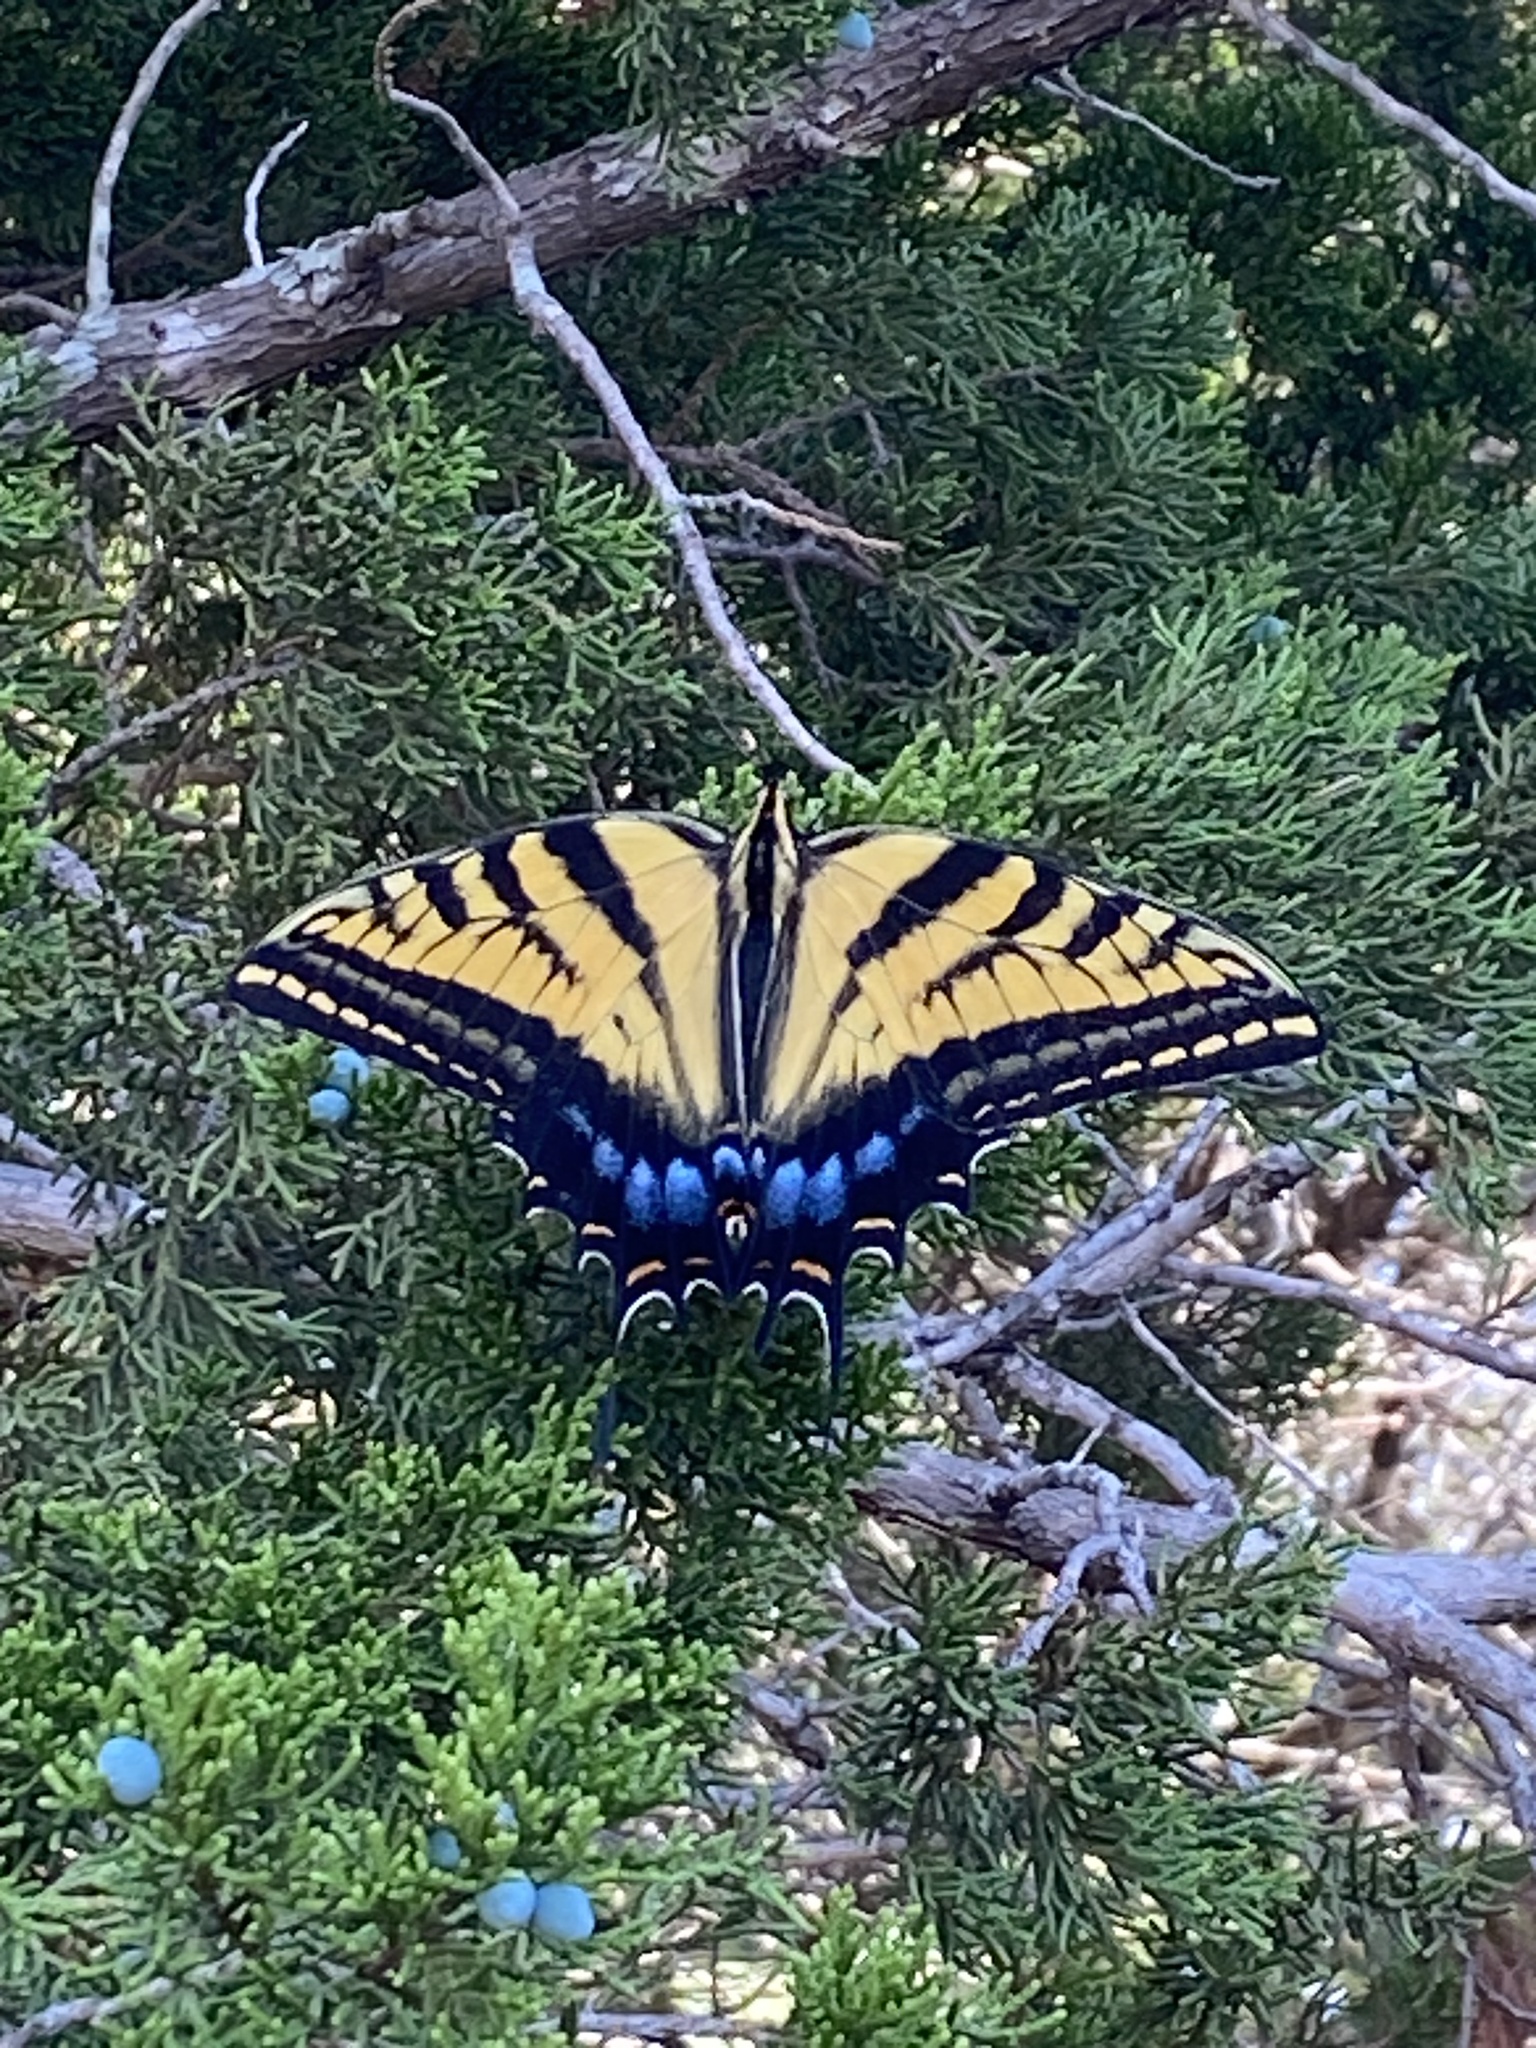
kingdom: Animalia
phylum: Arthropoda
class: Insecta
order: Lepidoptera
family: Papilionidae
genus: Papilio
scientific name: Papilio multicaudata
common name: Two-tailed tiger swallowtail
